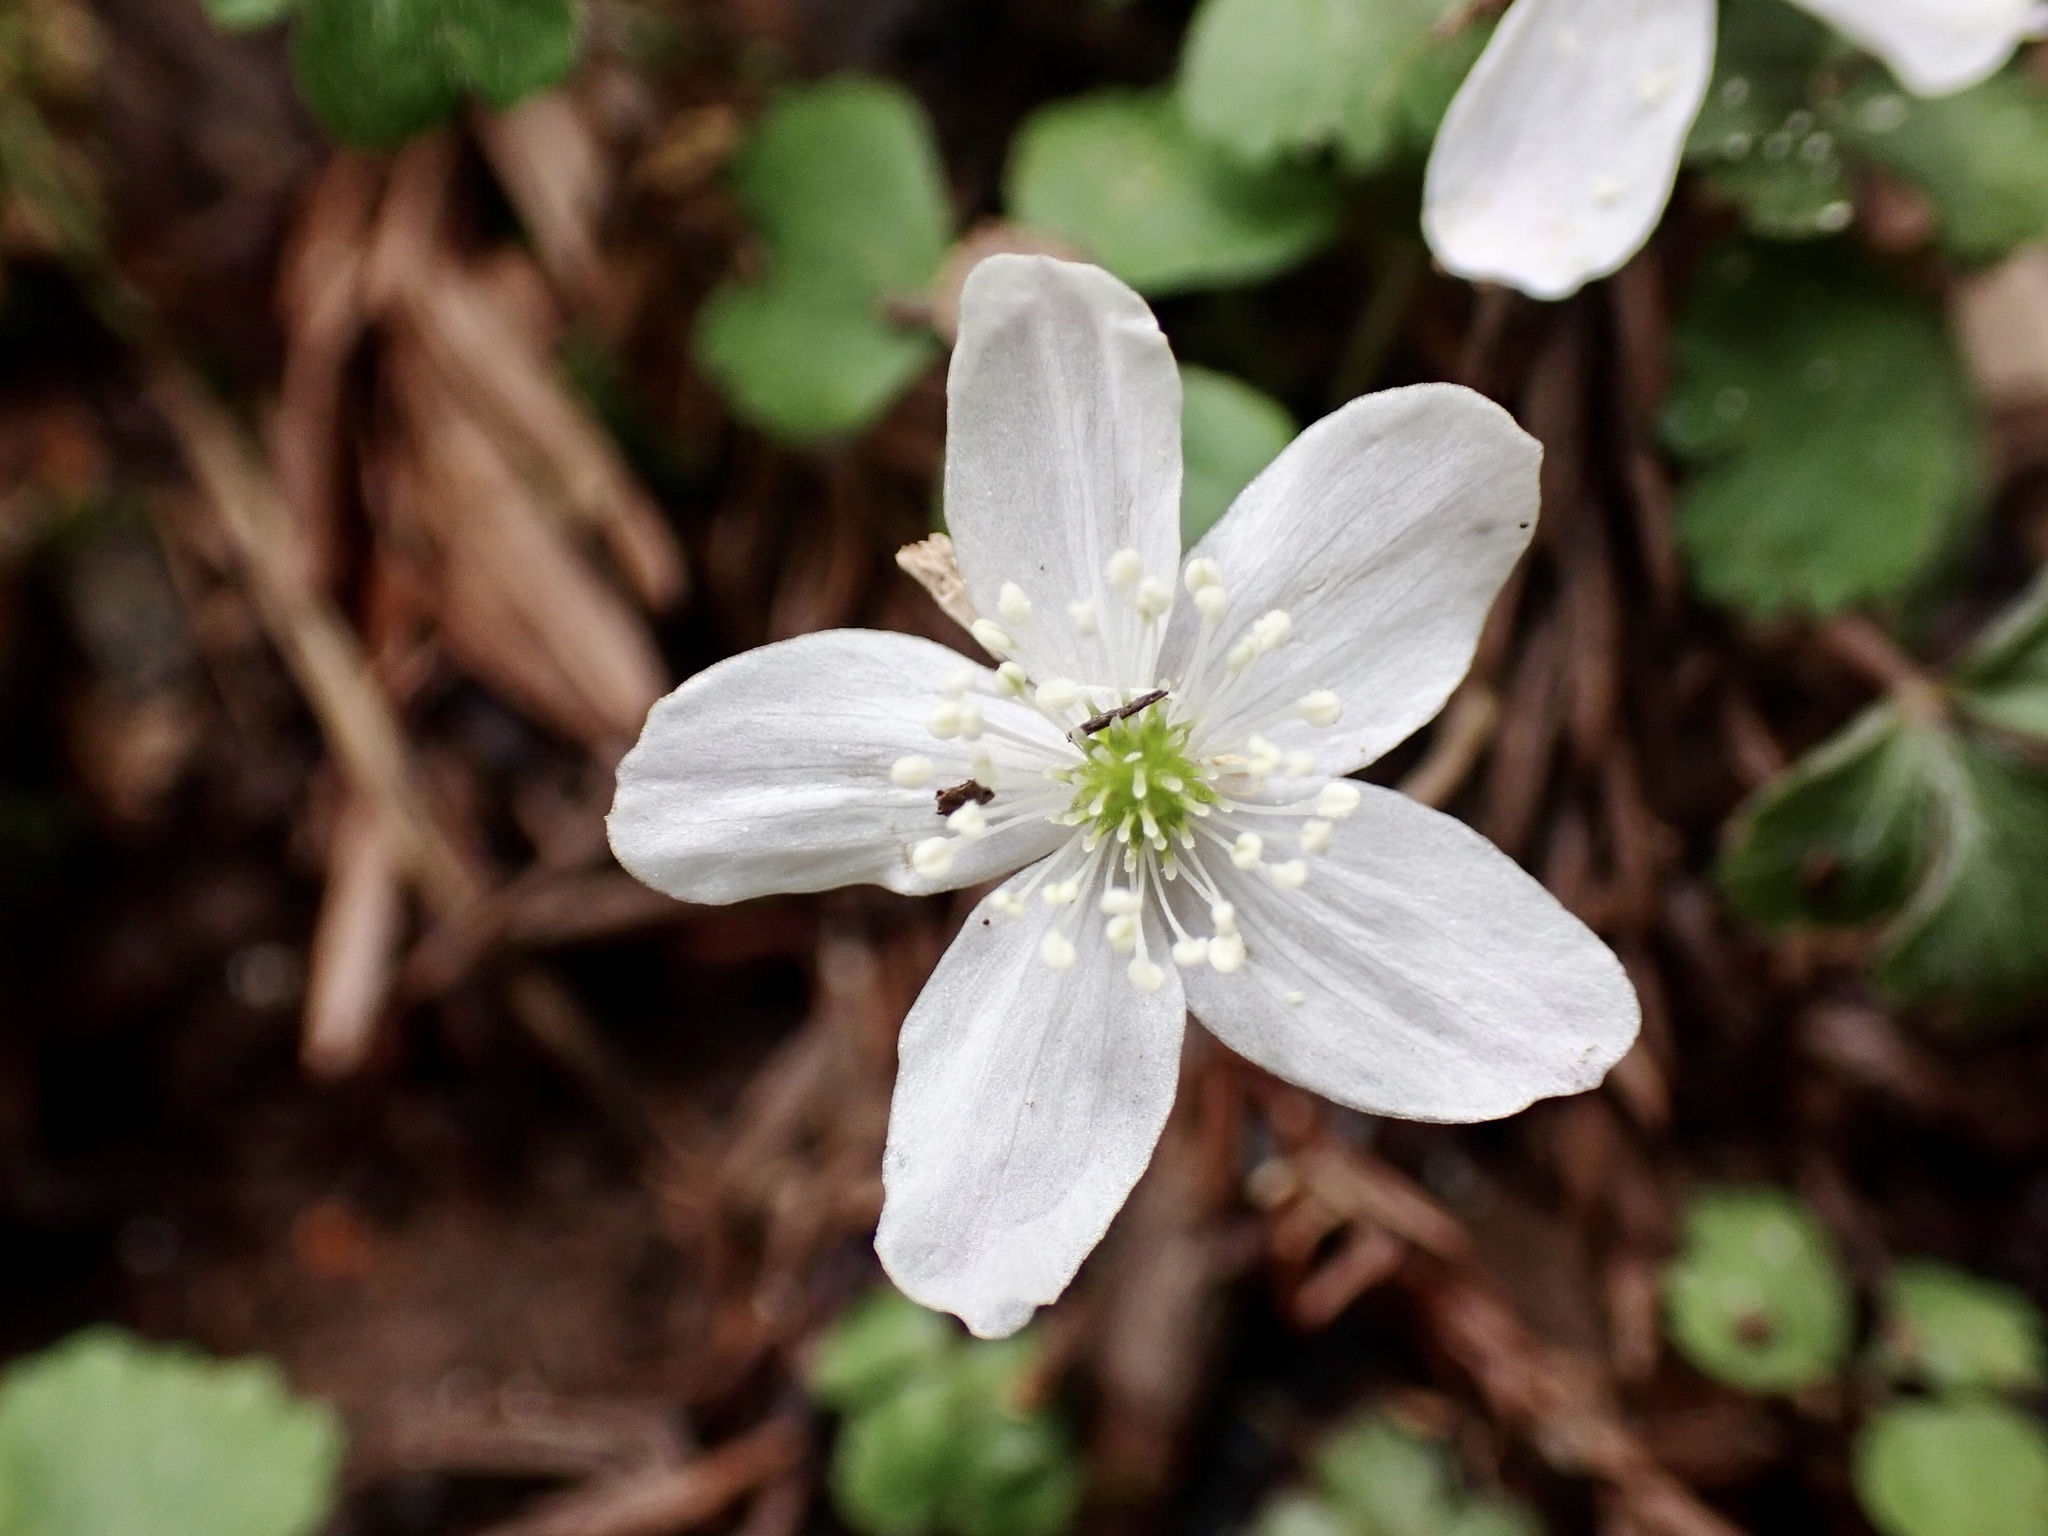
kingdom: Plantae
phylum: Tracheophyta
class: Magnoliopsida
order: Ranunculales
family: Ranunculaceae
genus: Anemone
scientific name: Anemone
